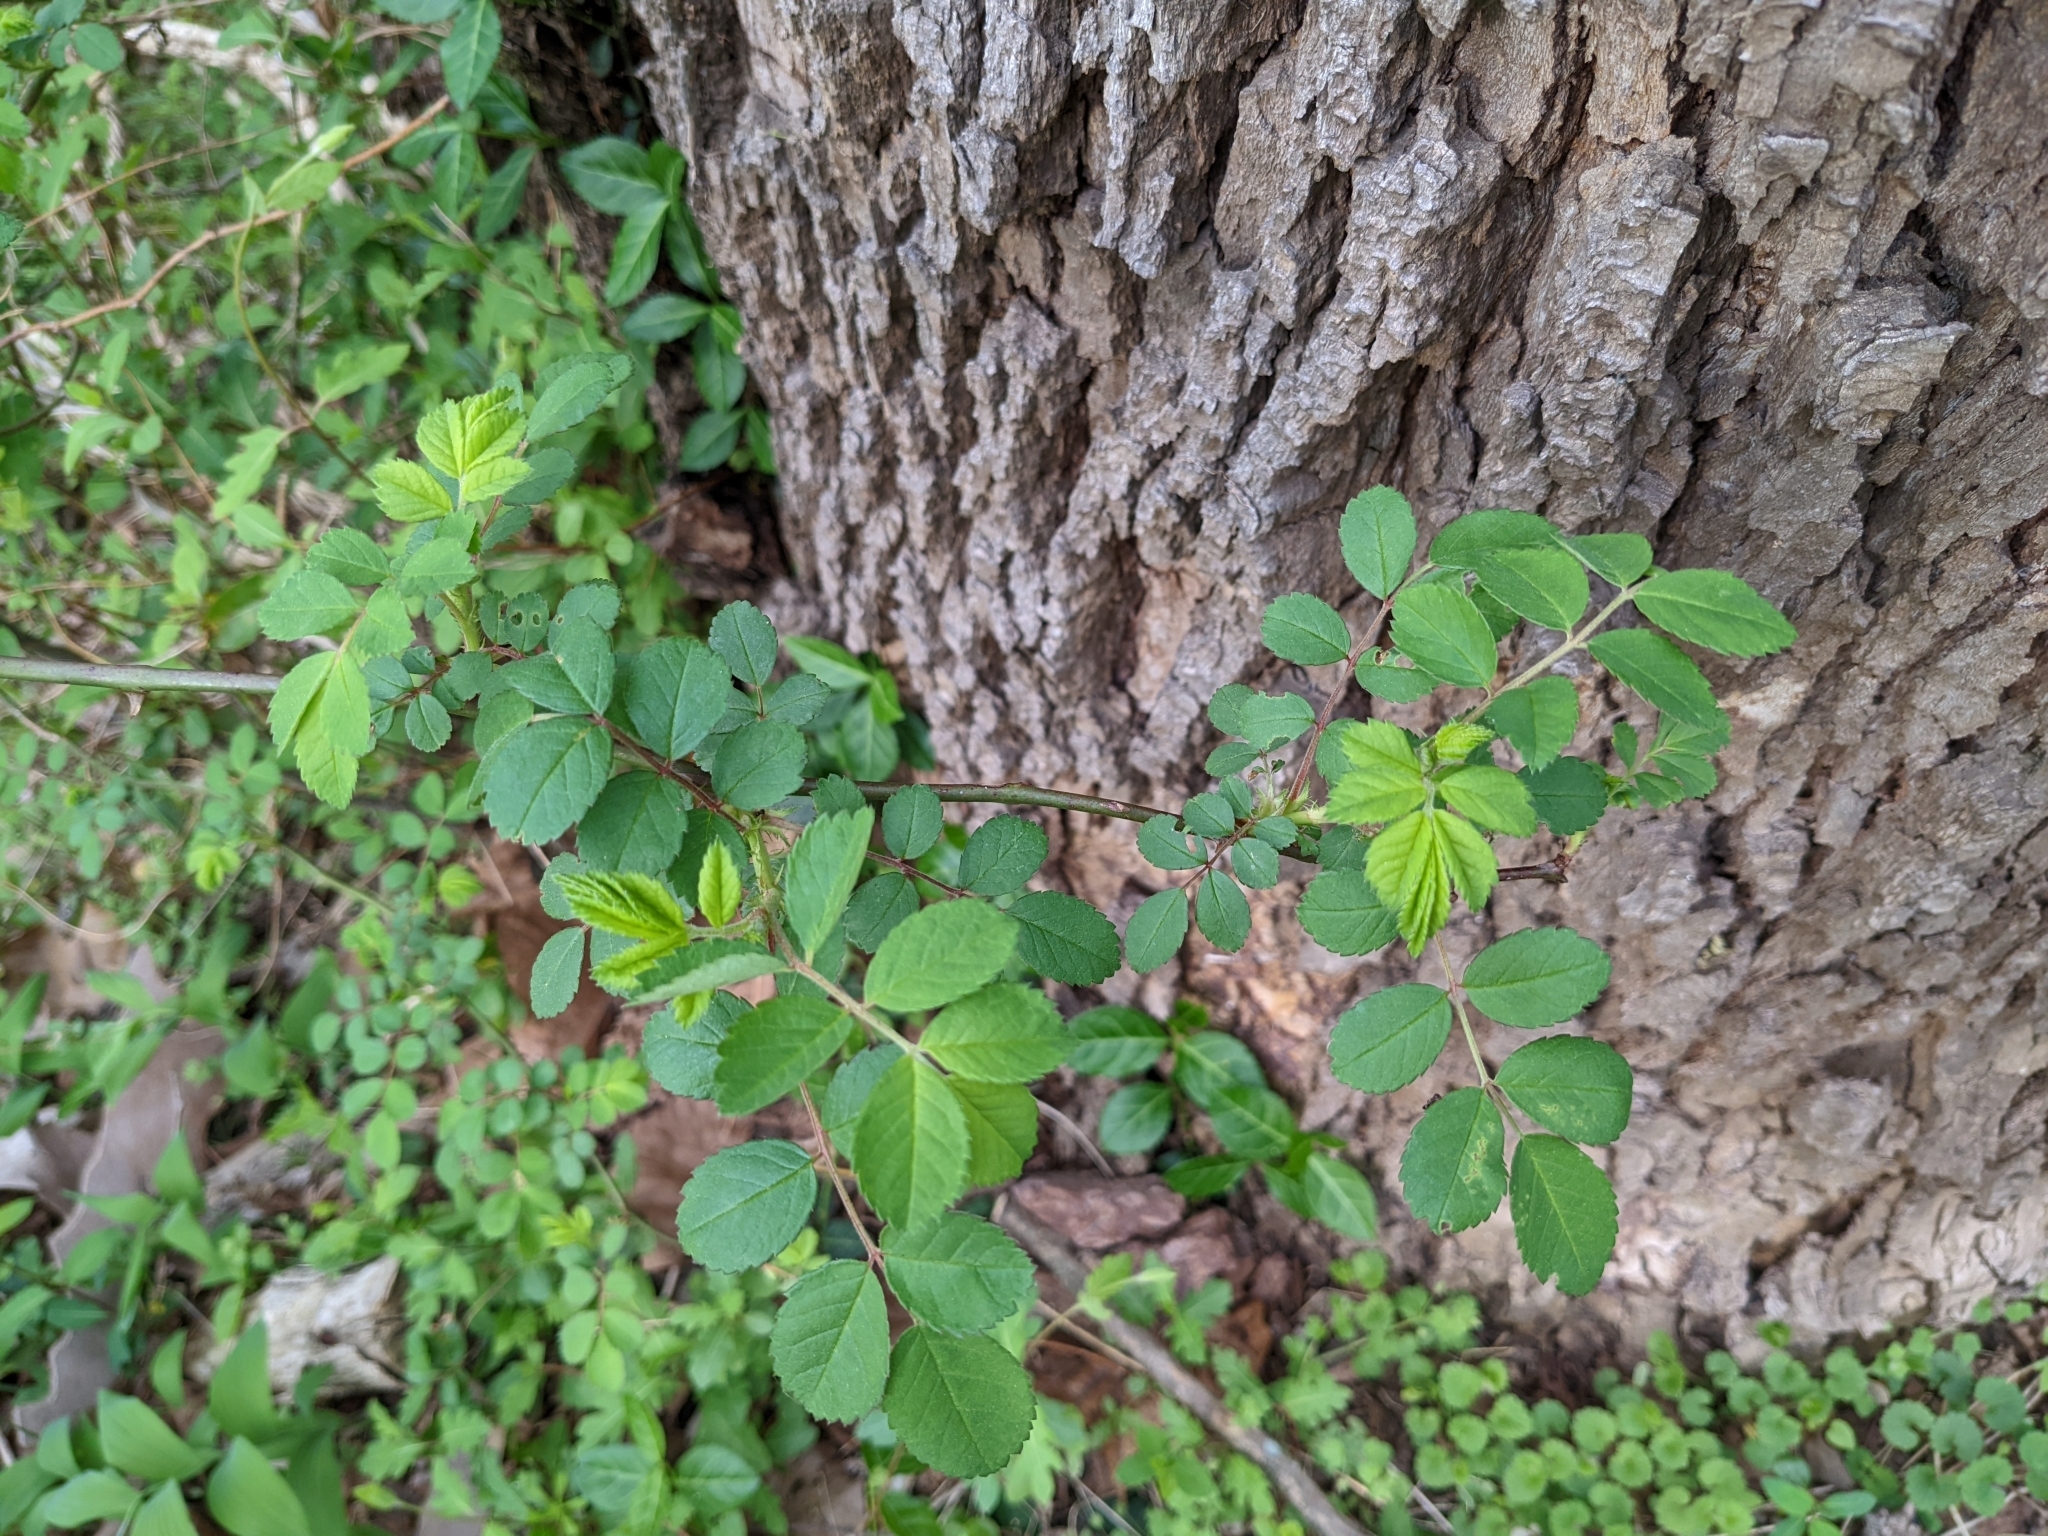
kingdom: Plantae
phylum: Tracheophyta
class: Magnoliopsida
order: Rosales
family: Rosaceae
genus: Rosa
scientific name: Rosa multiflora
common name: Multiflora rose
